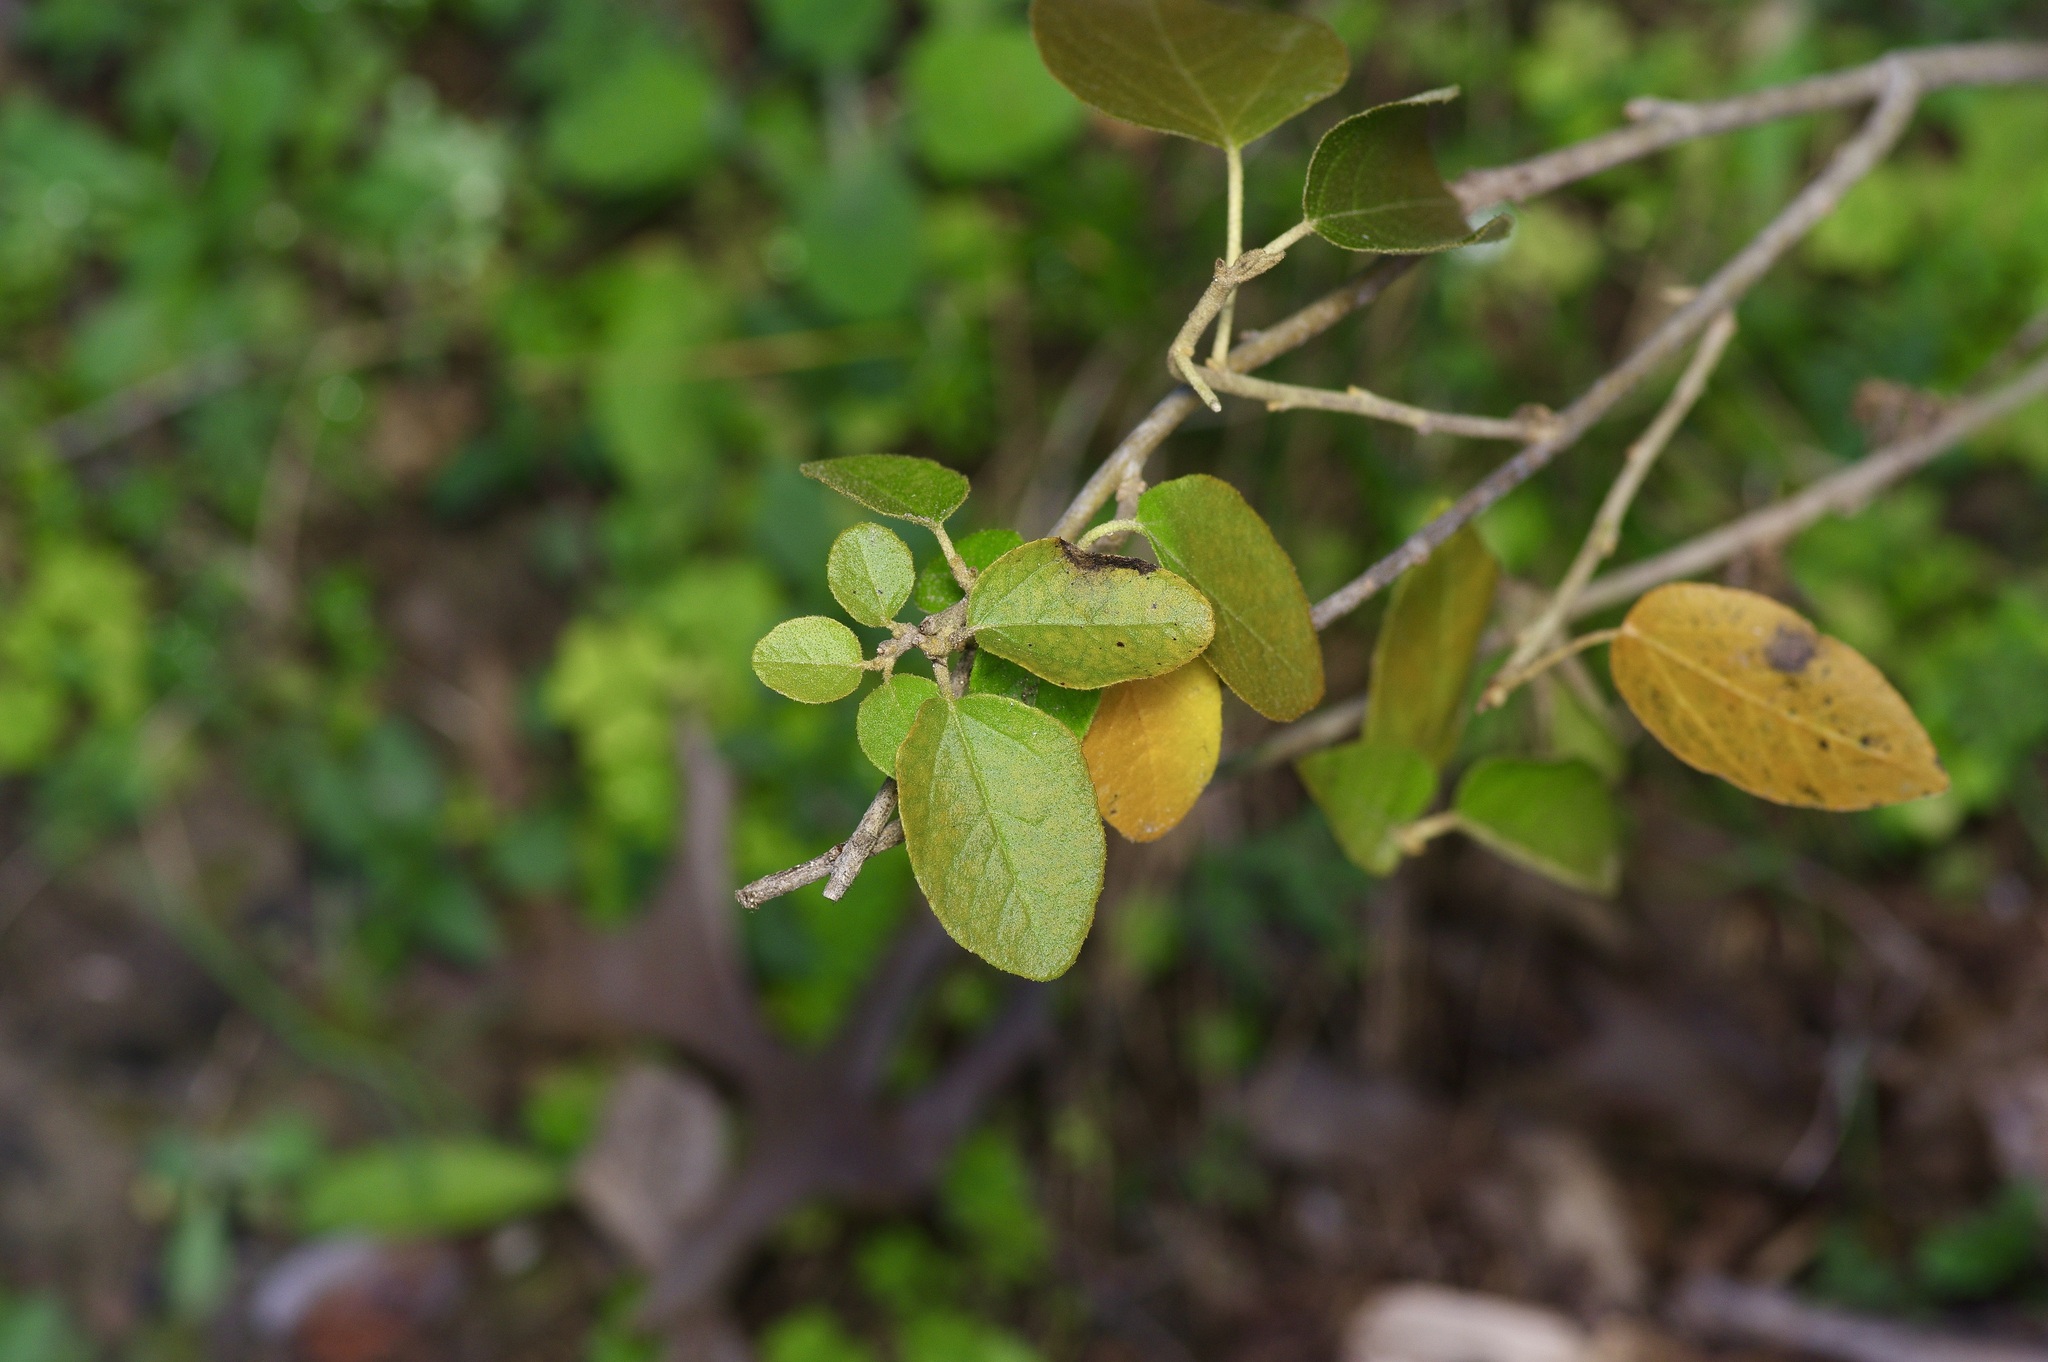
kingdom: Plantae
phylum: Tracheophyta
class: Magnoliopsida
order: Malpighiales
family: Euphorbiaceae
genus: Croton
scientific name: Croton fruticulosus
